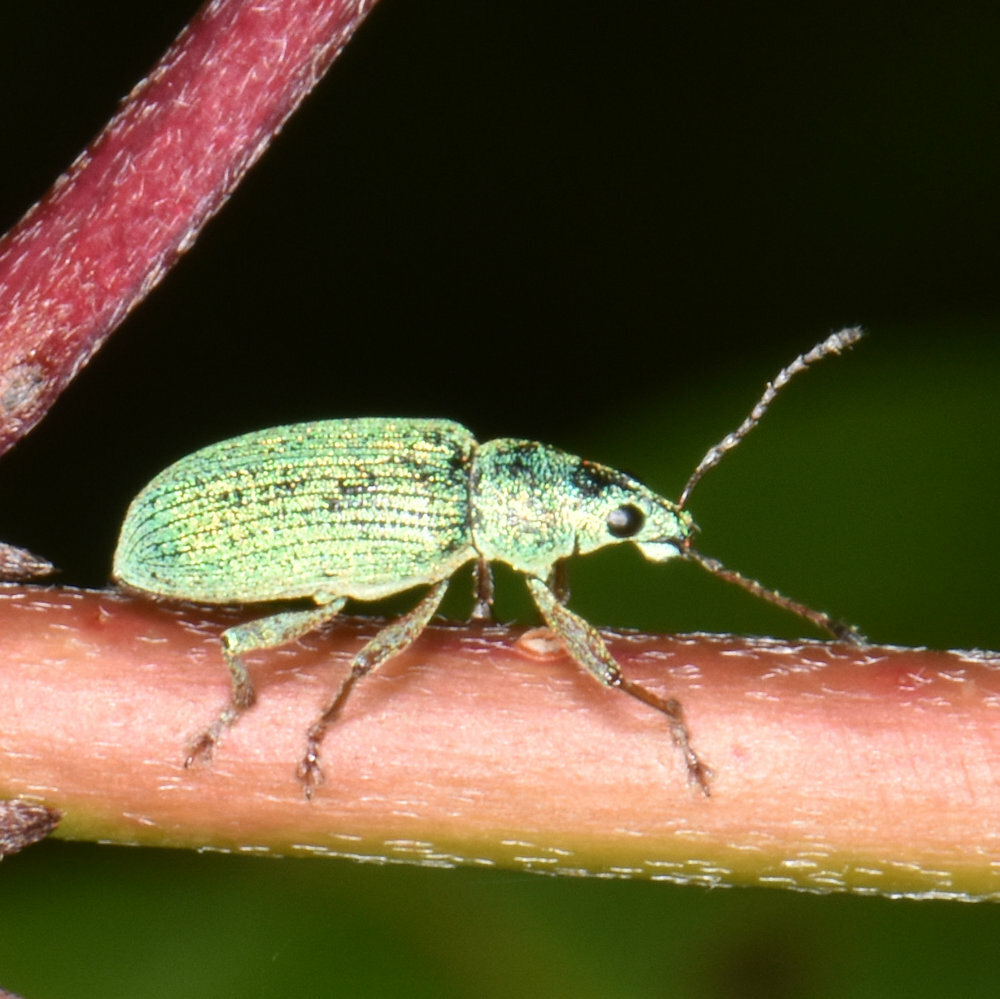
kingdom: Animalia
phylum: Arthropoda
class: Insecta
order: Coleoptera
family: Curculionidae
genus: Polydrusus
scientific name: Polydrusus formosus
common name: Weevil
